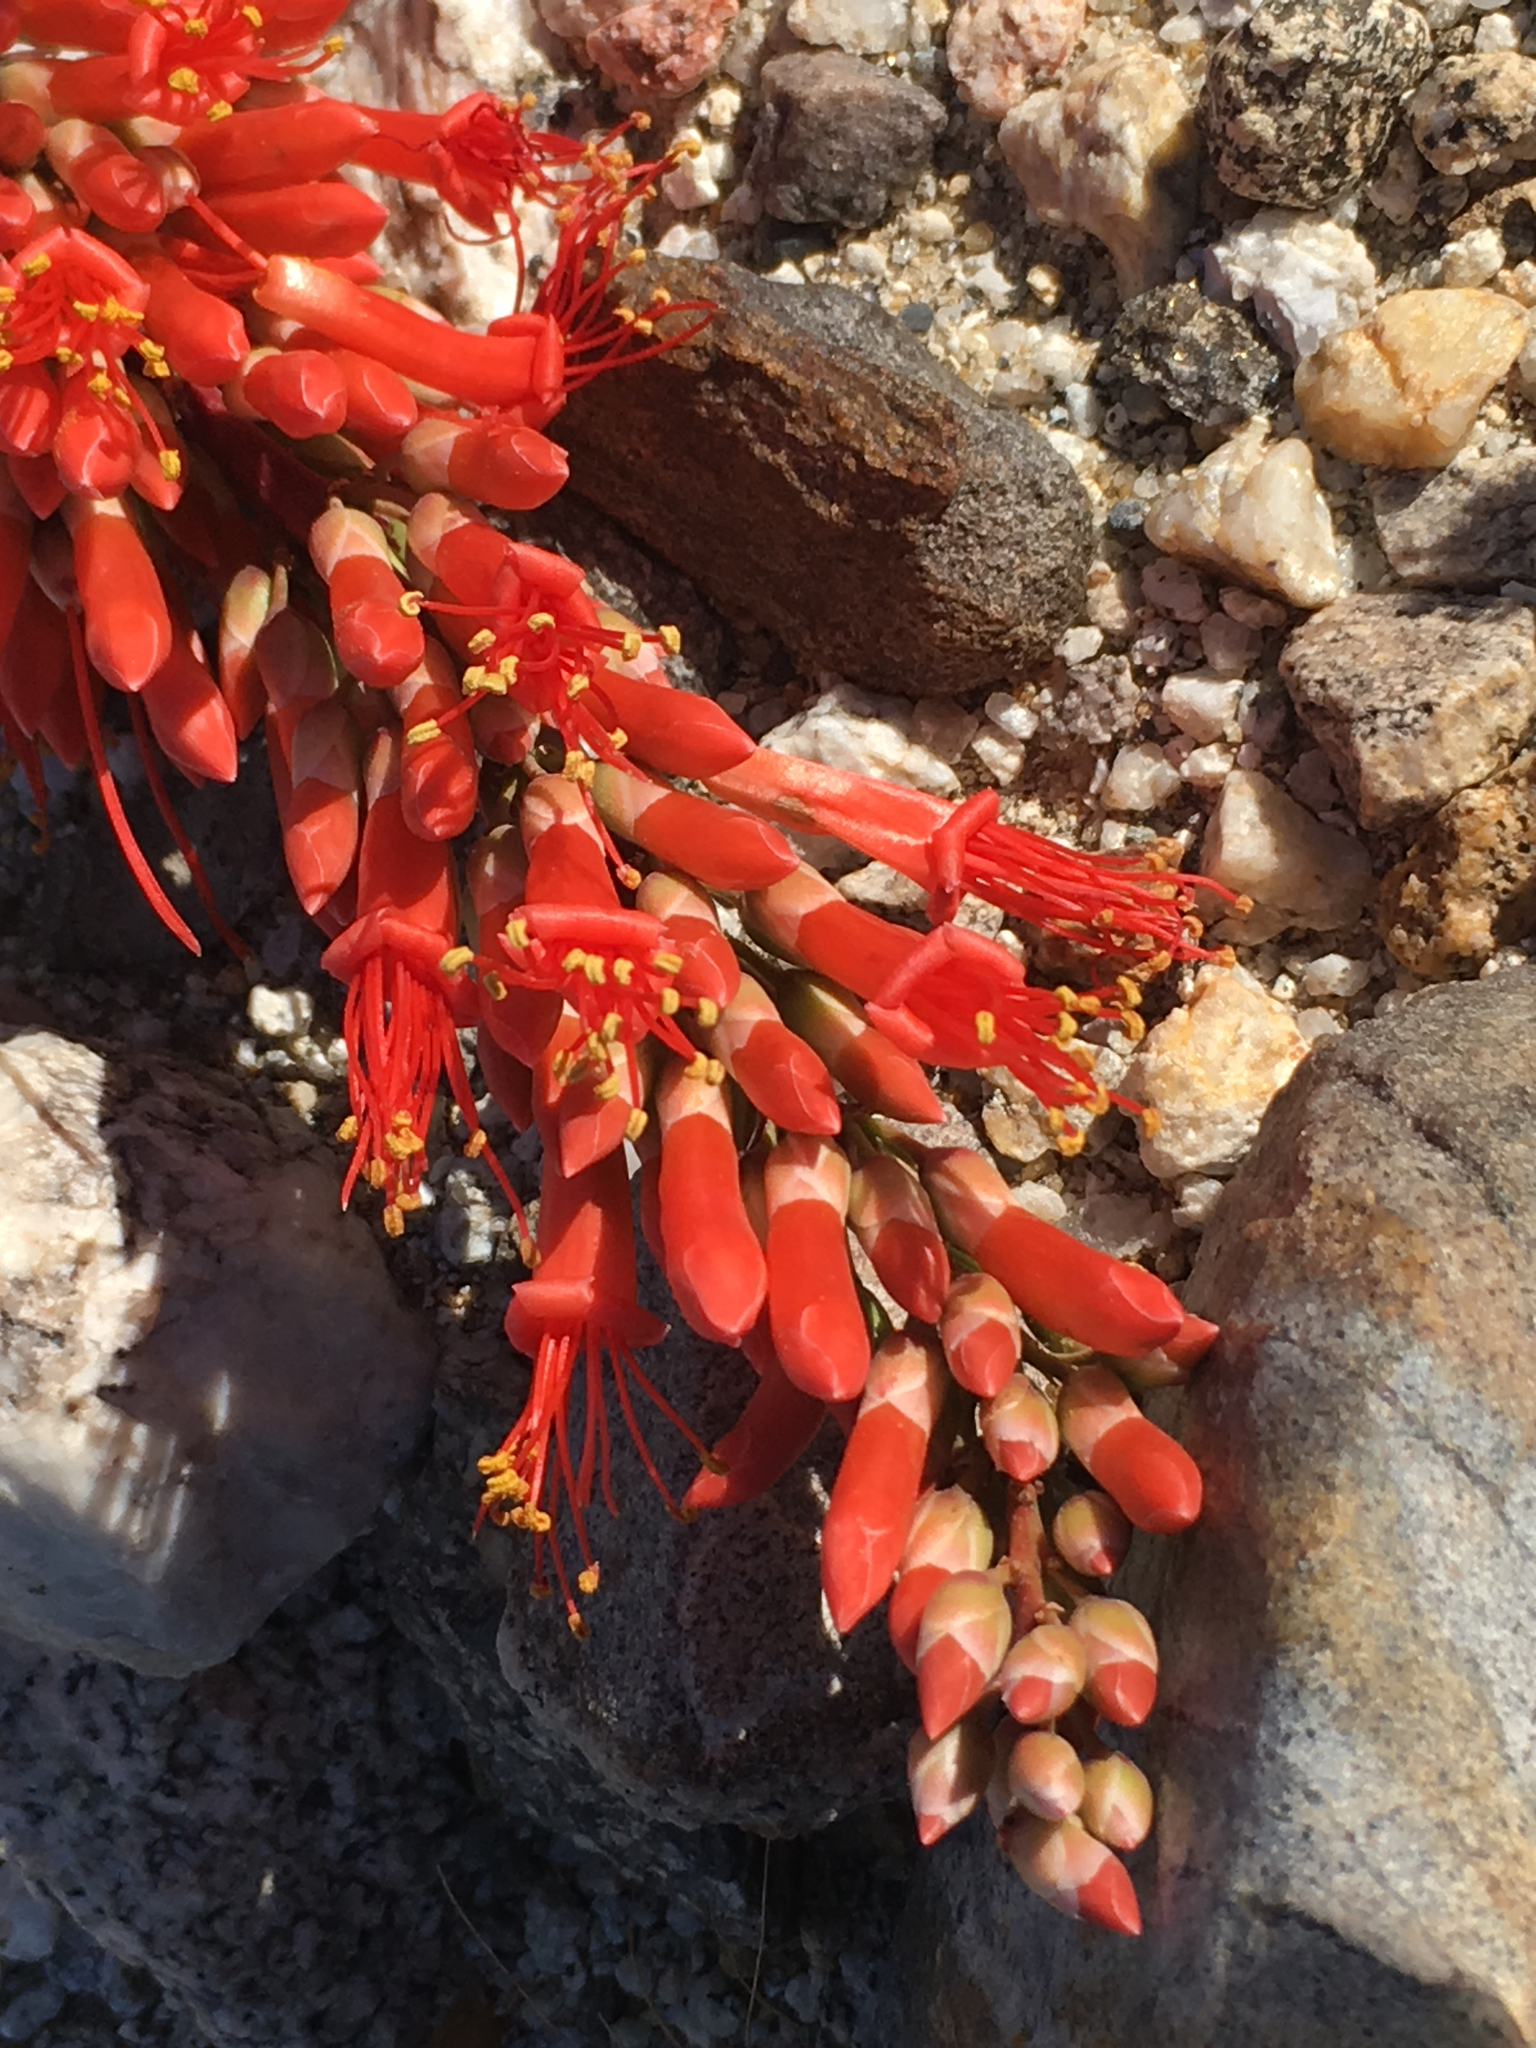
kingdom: Plantae
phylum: Tracheophyta
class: Magnoliopsida
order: Ericales
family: Fouquieriaceae
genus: Fouquieria
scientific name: Fouquieria splendens
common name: Vine-cactus
